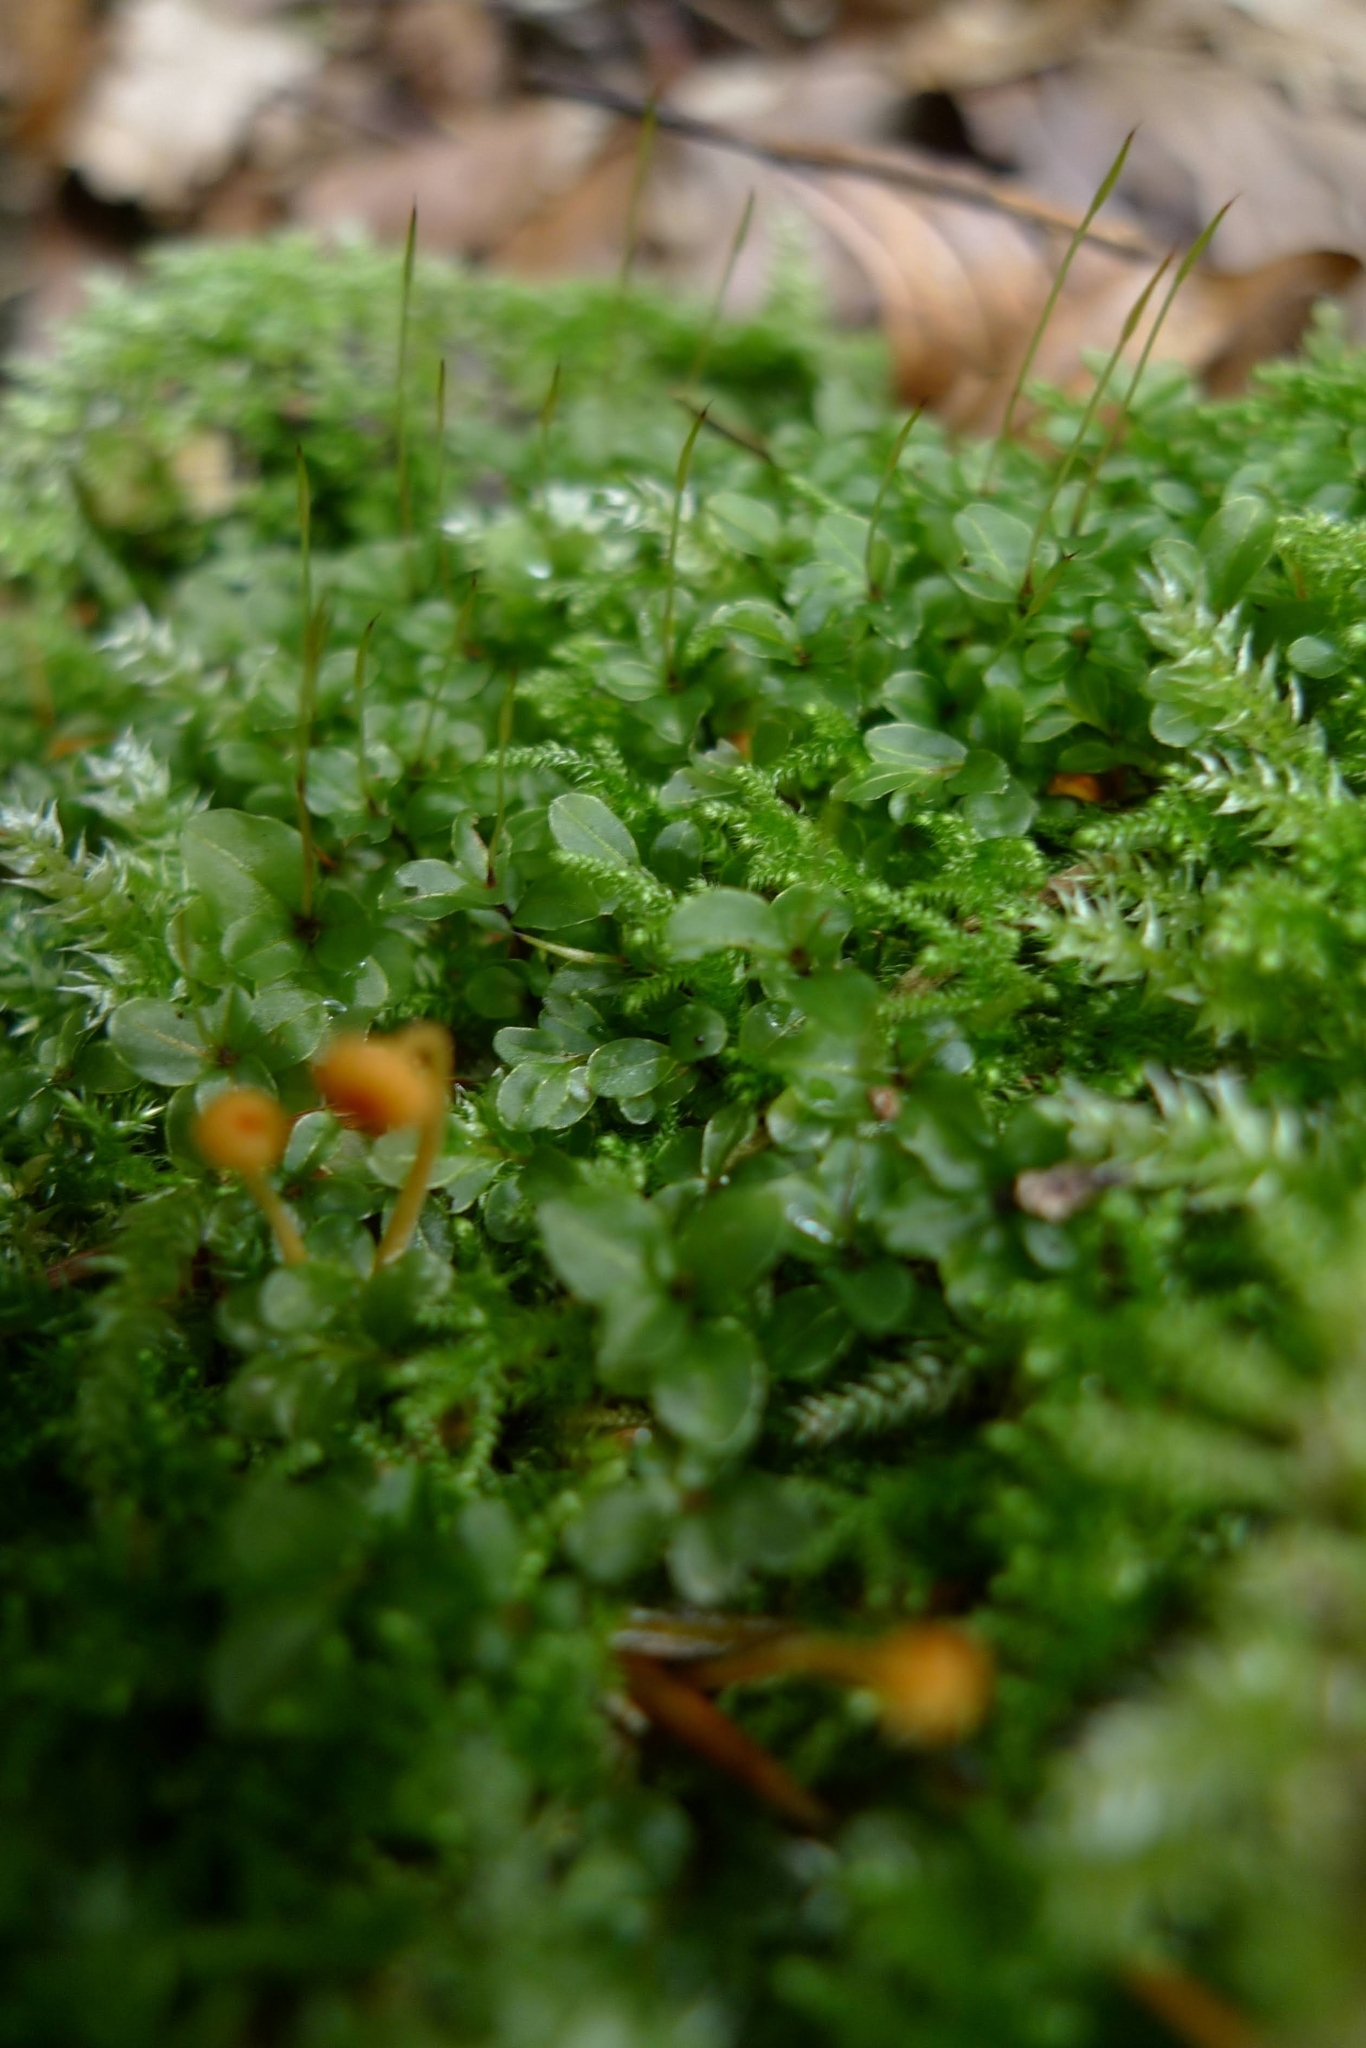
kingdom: Plantae
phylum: Bryophyta
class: Bryopsida
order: Bryales
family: Mniaceae
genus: Rhizomnium
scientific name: Rhizomnium punctatum
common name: Dotted leafy moss
